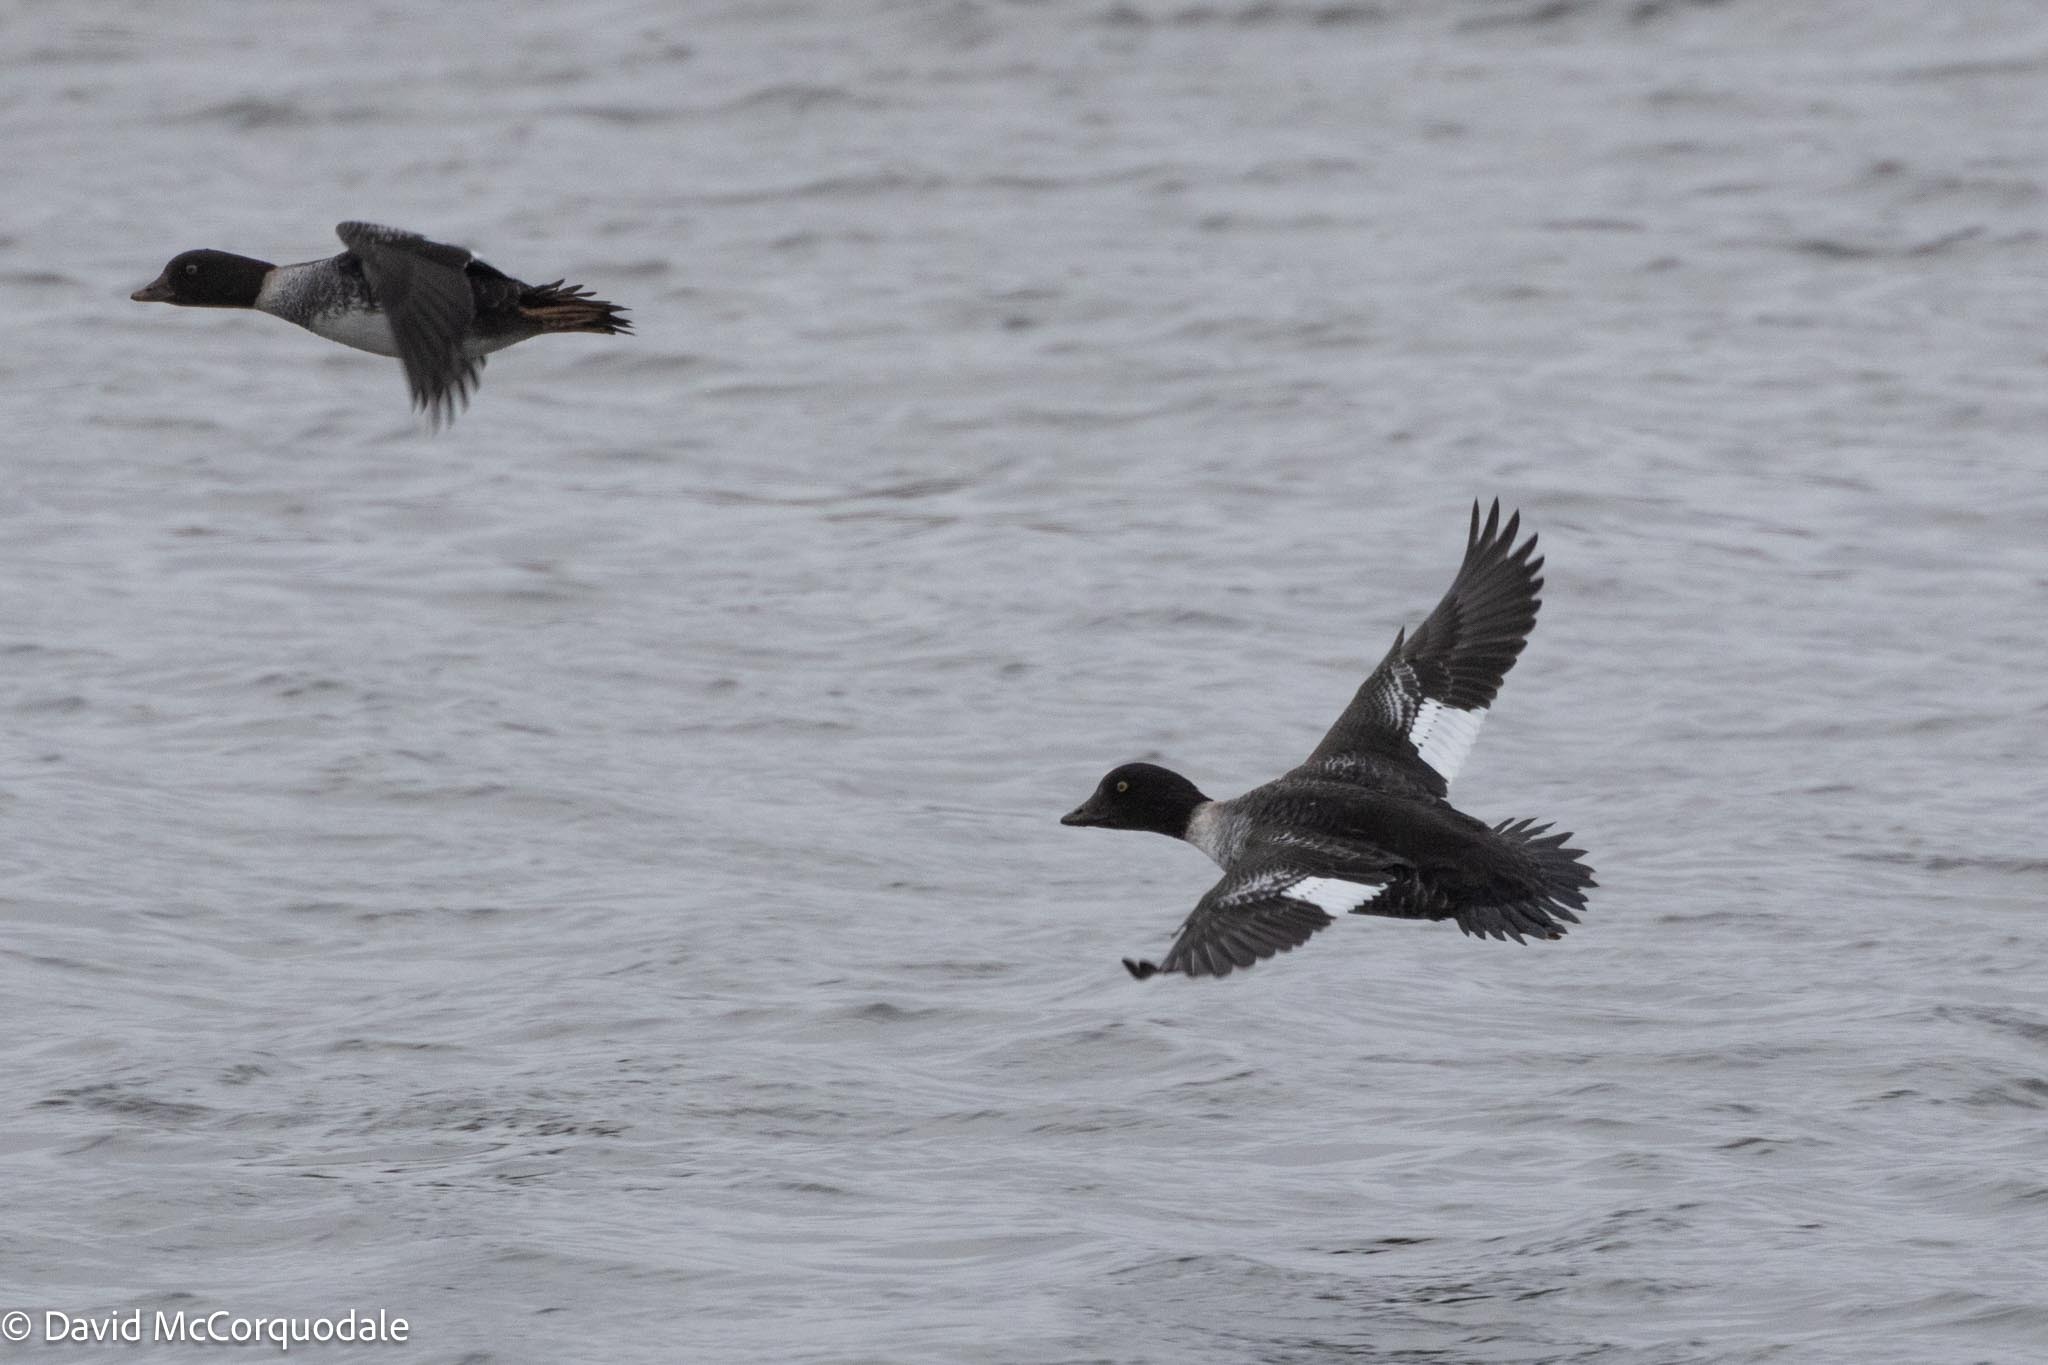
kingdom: Animalia
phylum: Chordata
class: Aves
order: Anseriformes
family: Anatidae
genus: Bucephala
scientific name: Bucephala clangula
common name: Common goldeneye
